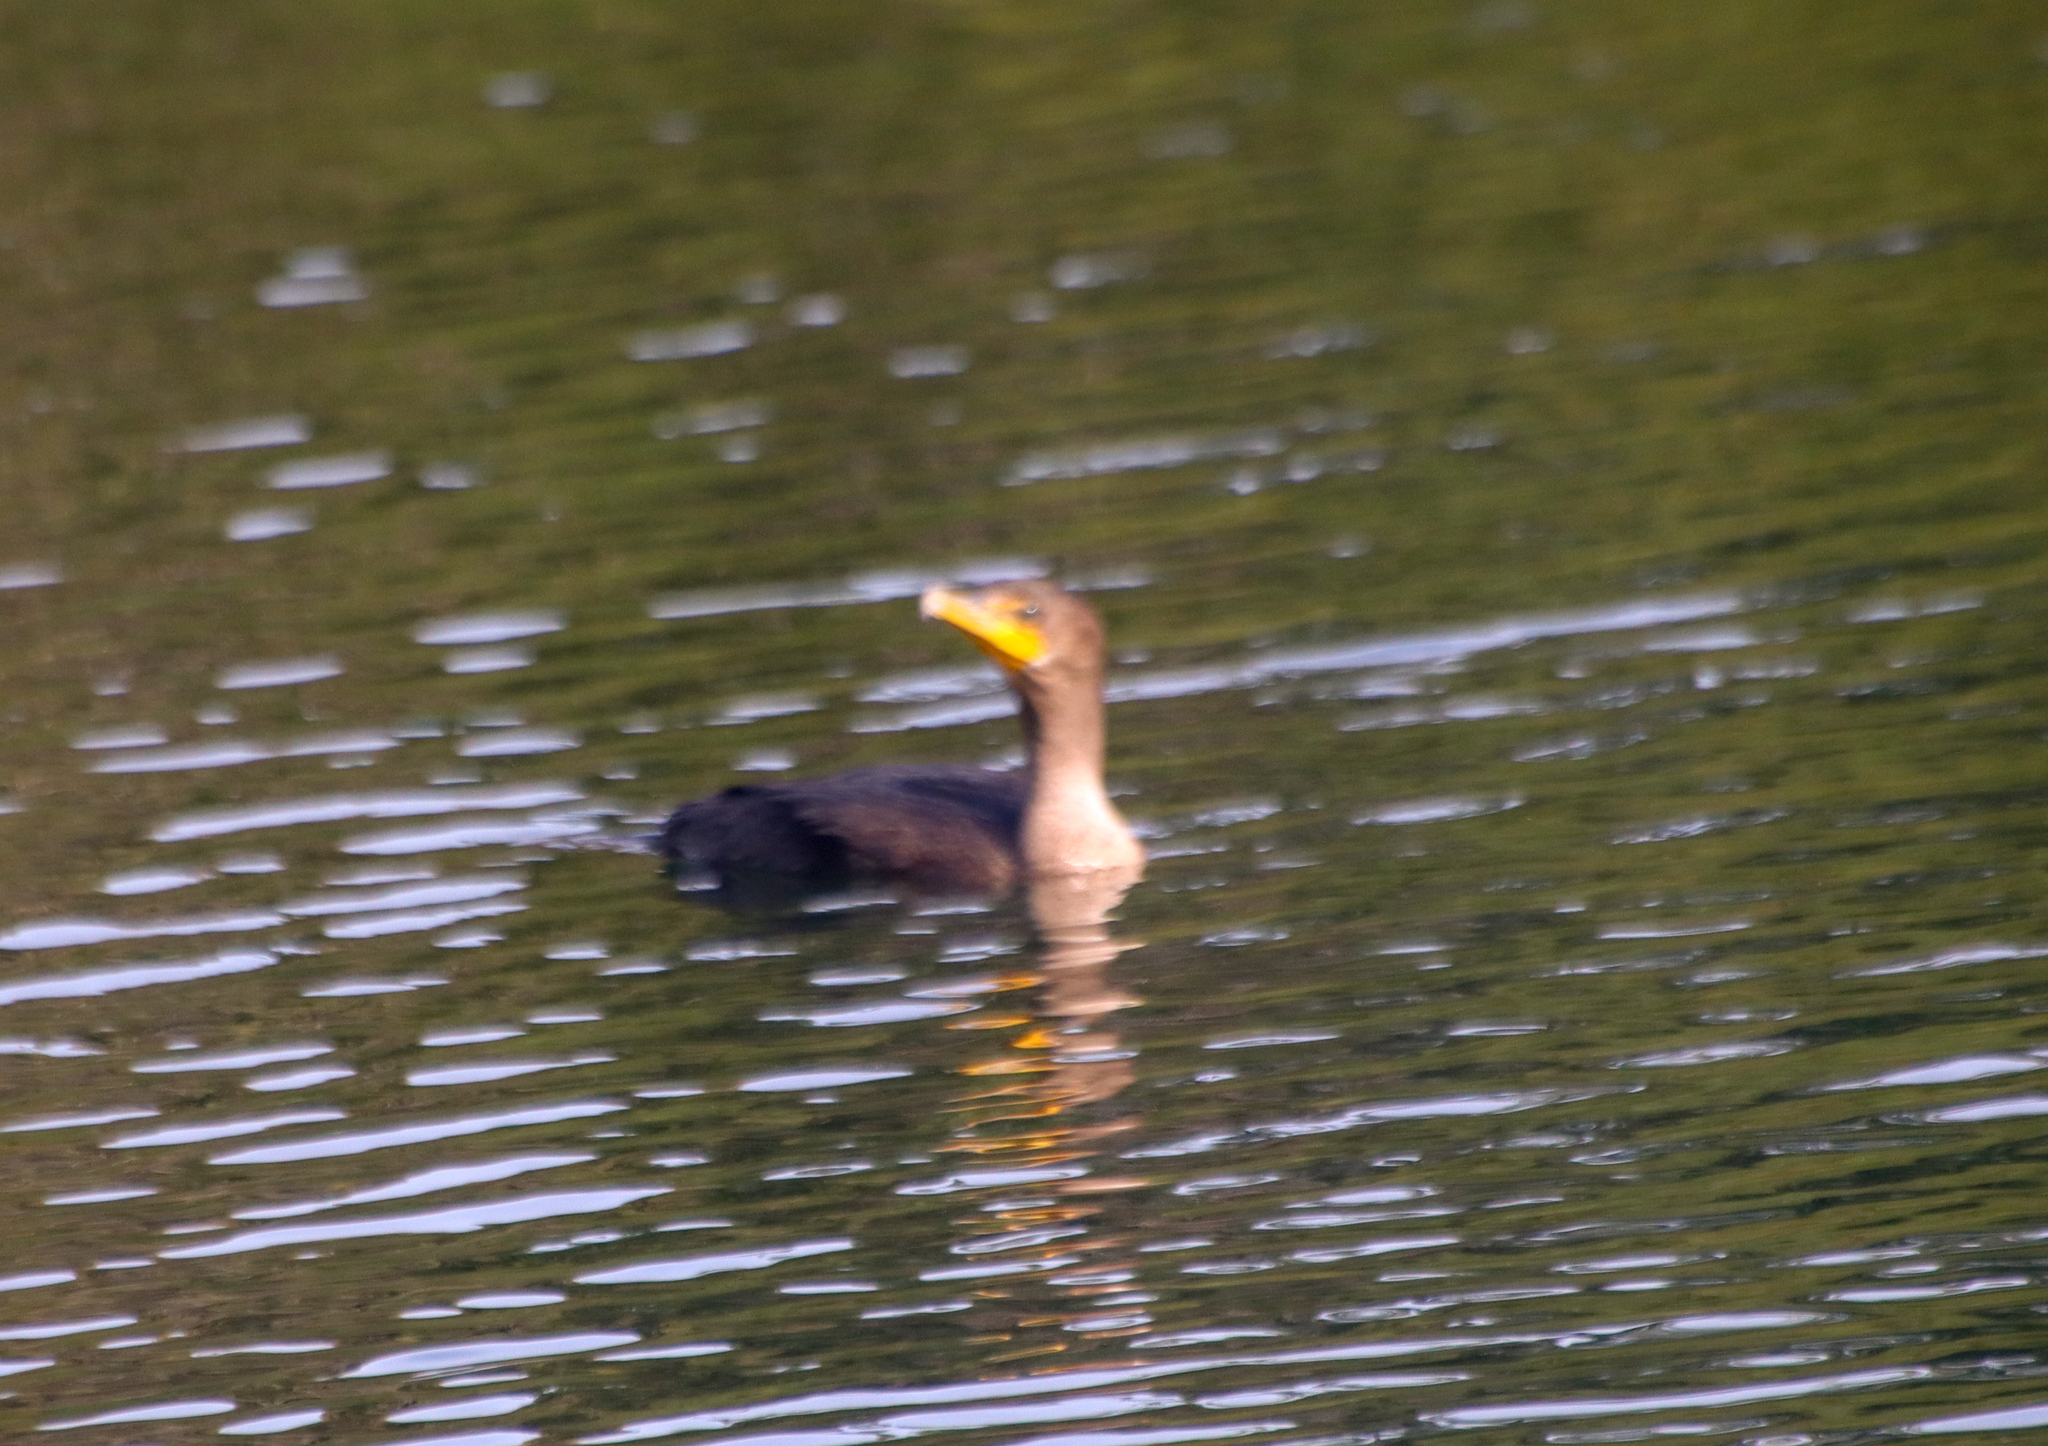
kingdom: Animalia
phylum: Chordata
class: Aves
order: Suliformes
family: Phalacrocoracidae
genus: Phalacrocorax
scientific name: Phalacrocorax auritus
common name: Double-crested cormorant
